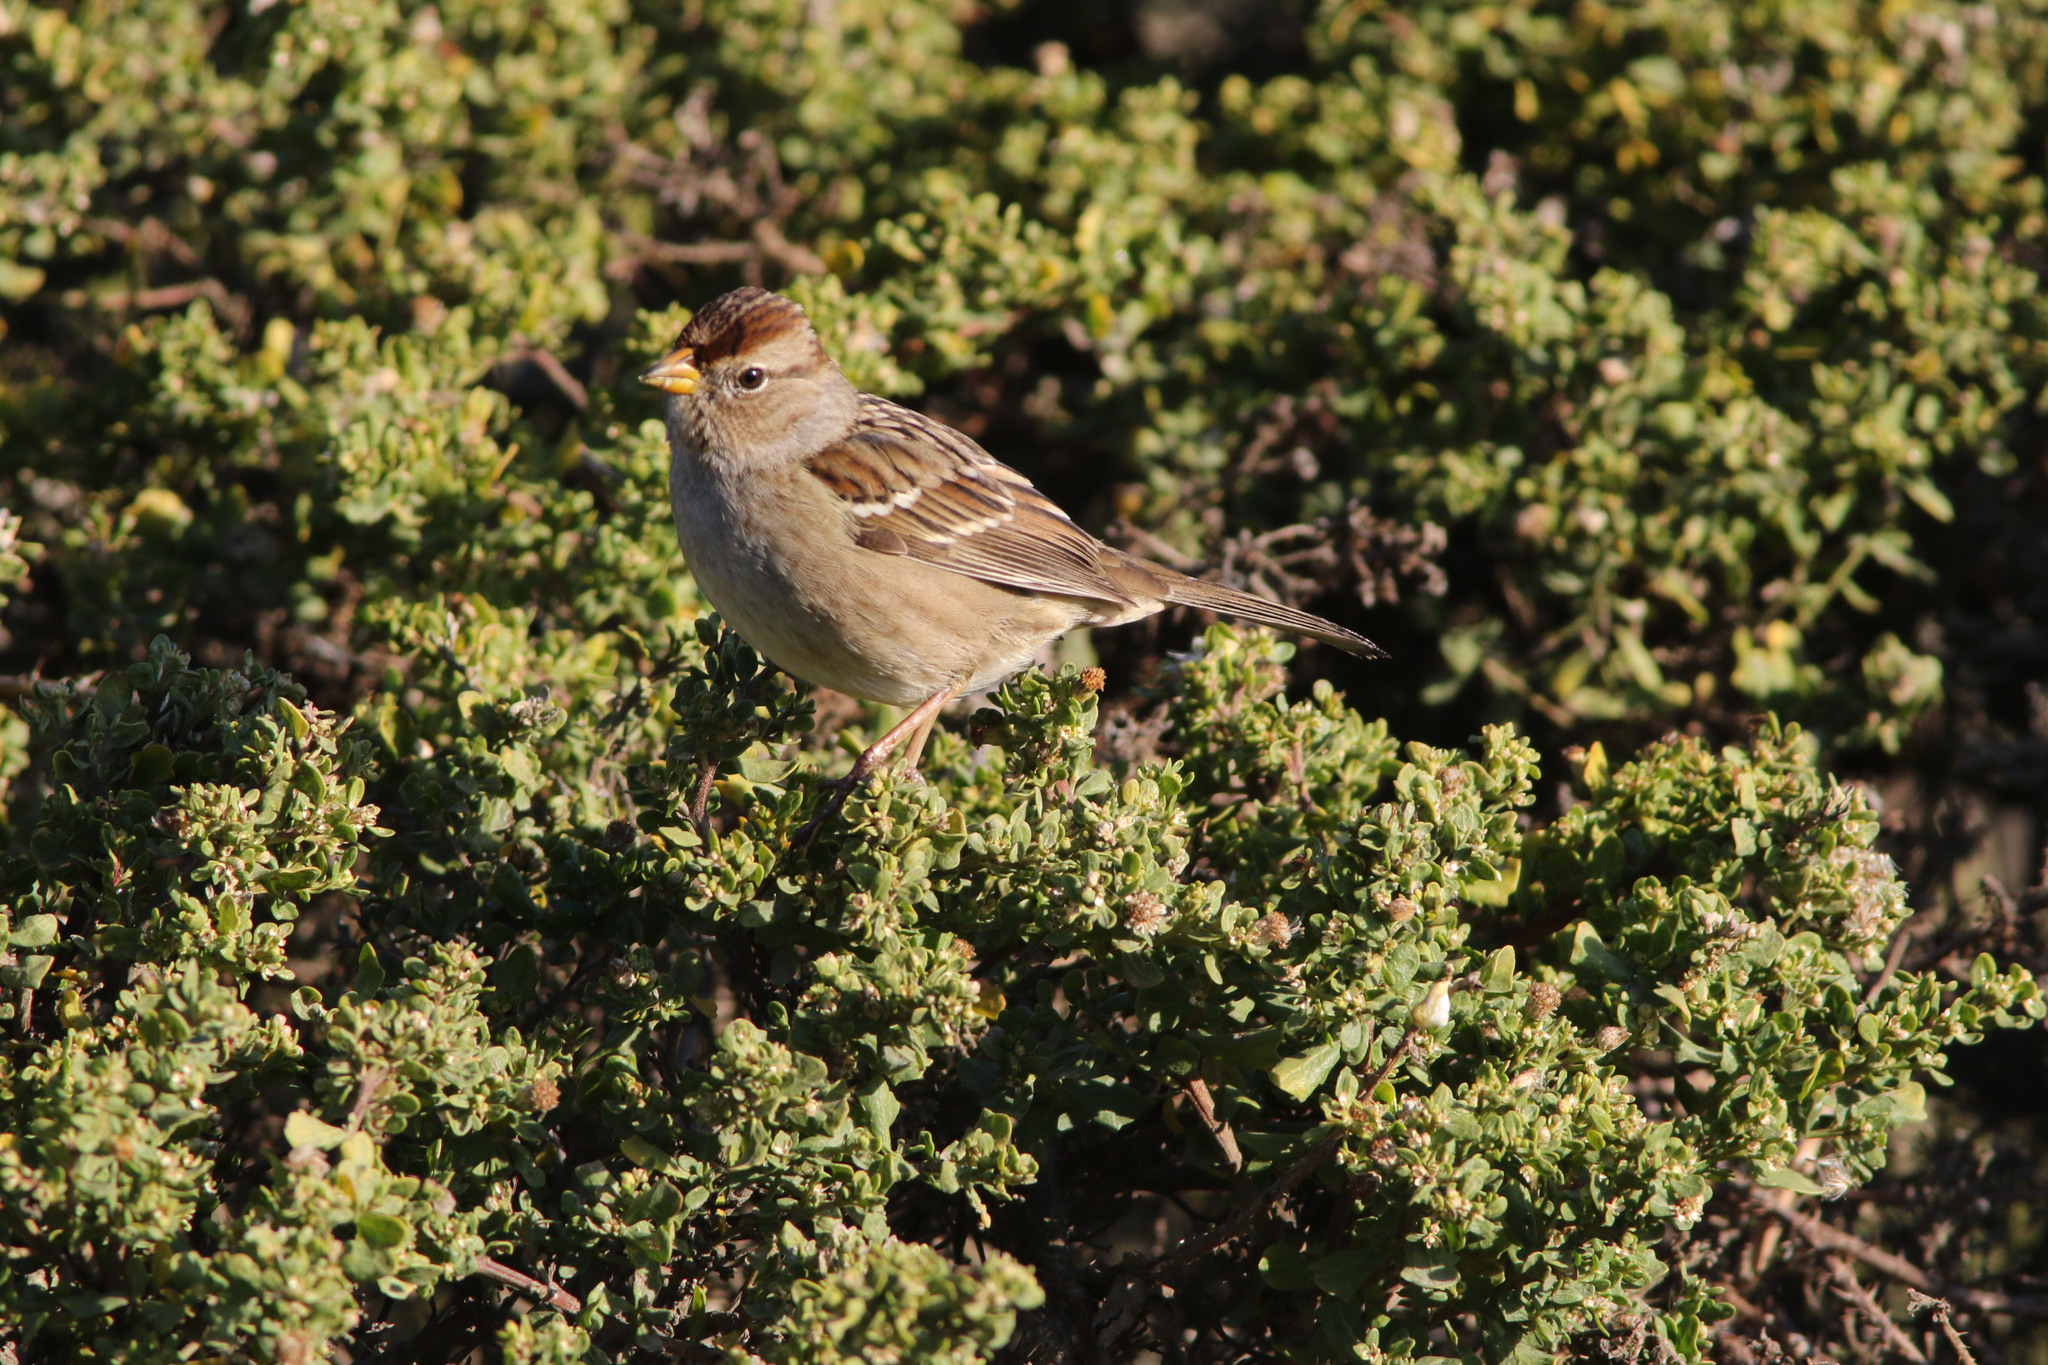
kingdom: Animalia
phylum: Chordata
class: Aves
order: Passeriformes
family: Passerellidae
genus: Zonotrichia
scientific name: Zonotrichia leucophrys
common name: White-crowned sparrow
